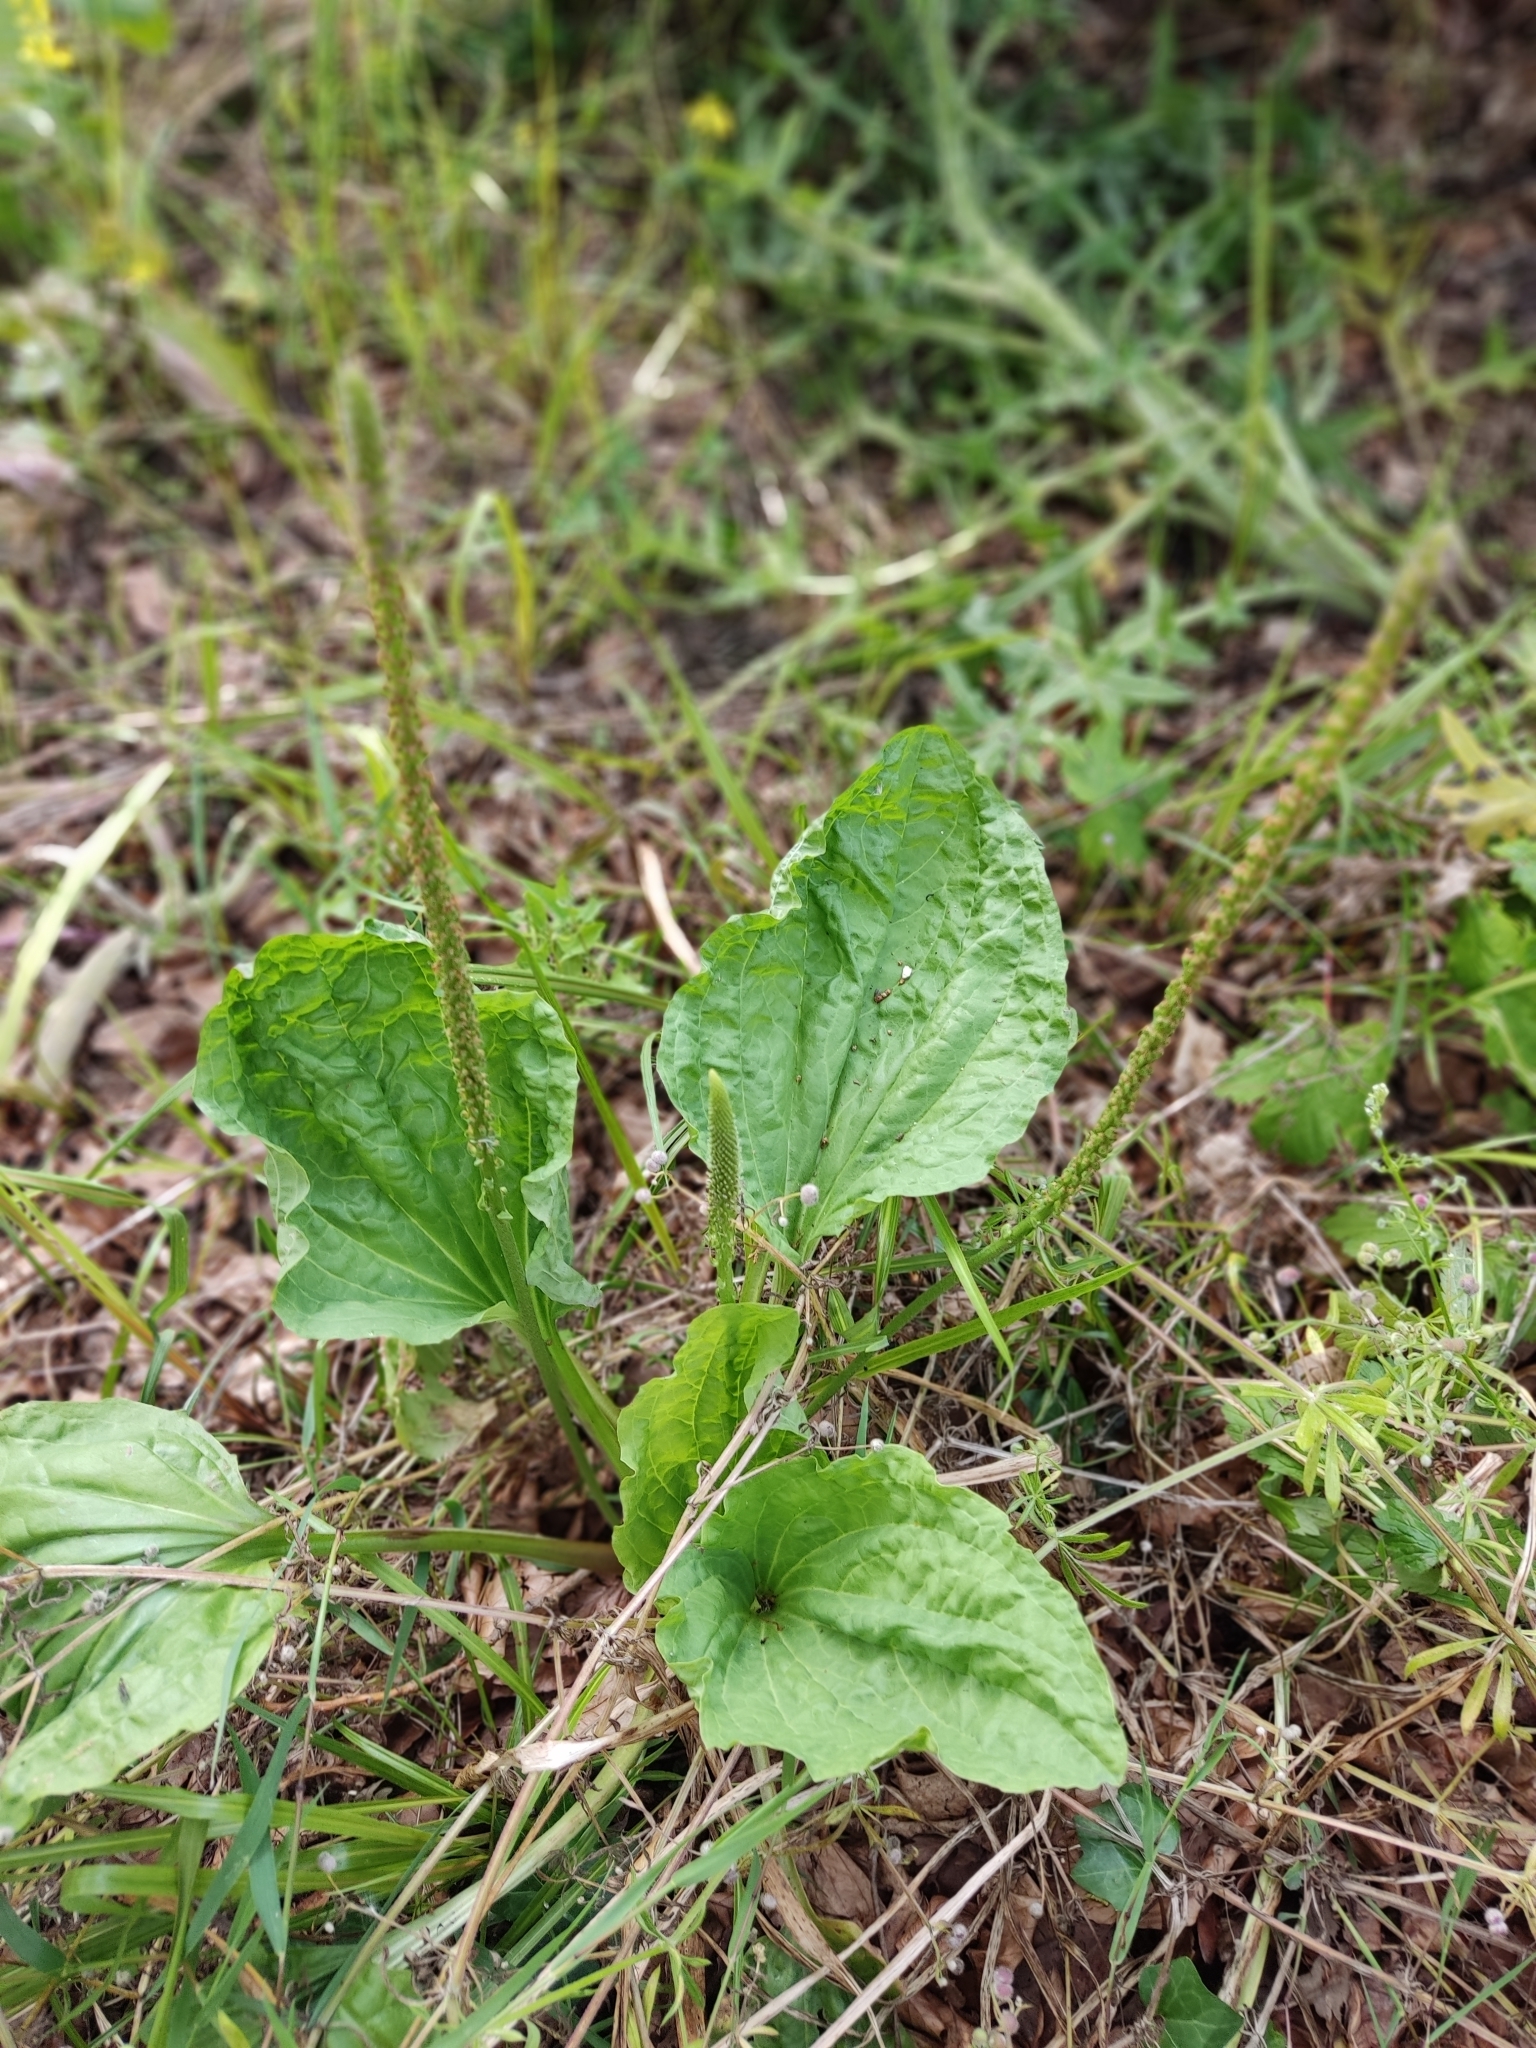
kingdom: Plantae
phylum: Tracheophyta
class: Magnoliopsida
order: Lamiales
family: Plantaginaceae
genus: Plantago
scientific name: Plantago major
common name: Common plantain
